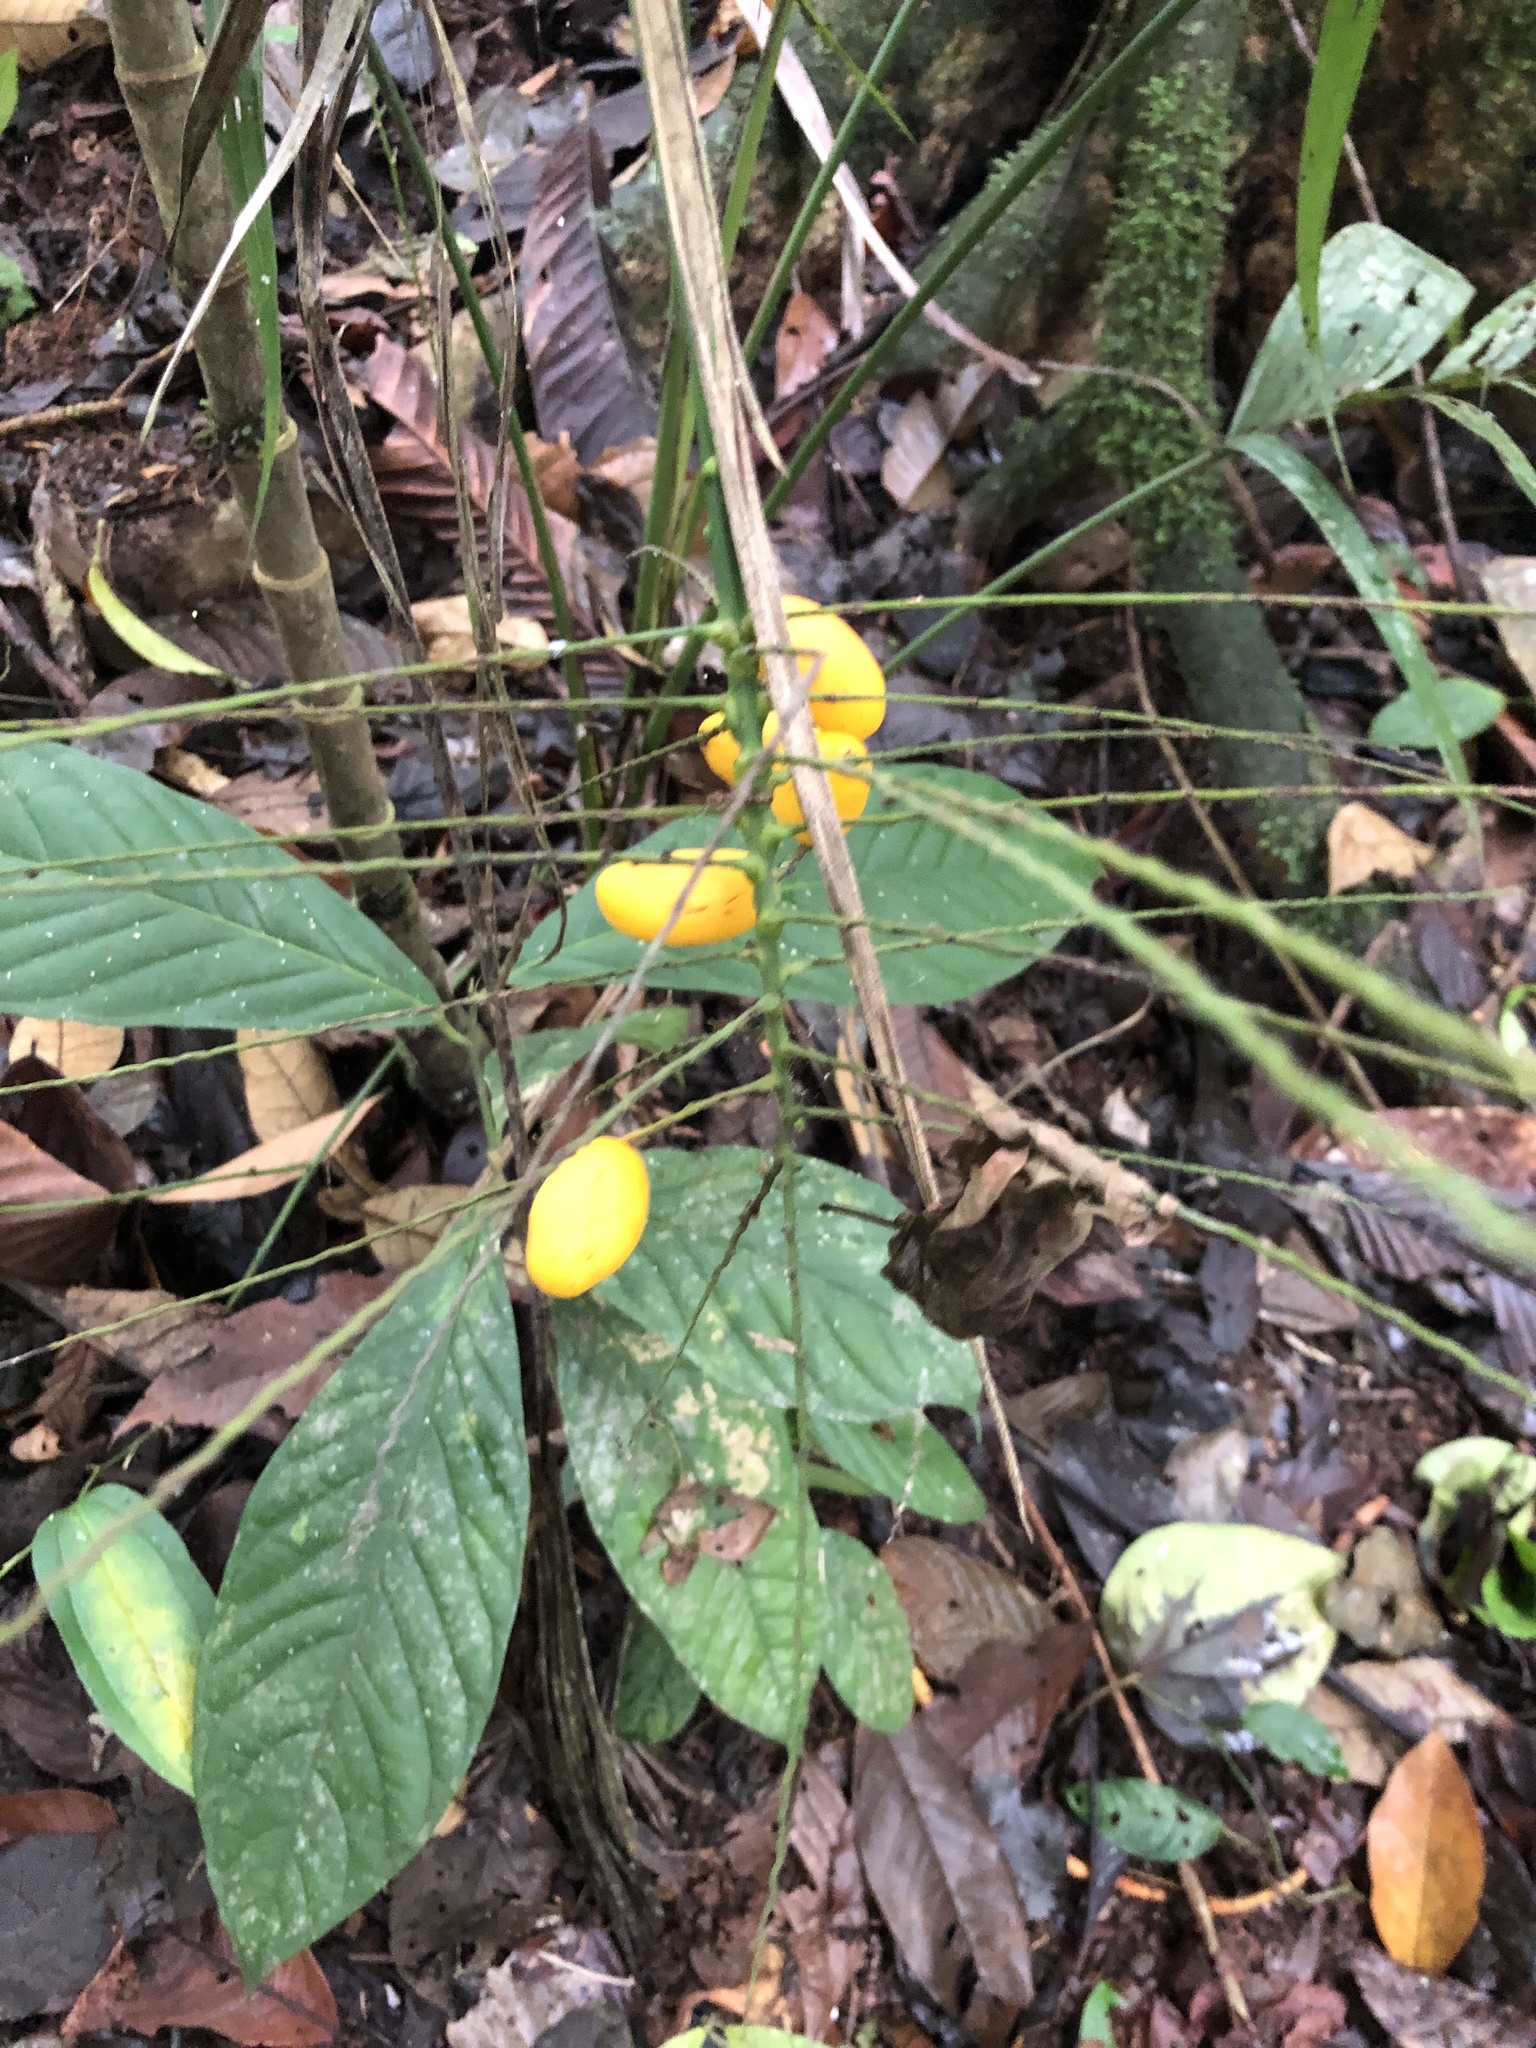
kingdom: Plantae
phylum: Tracheophyta
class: Liliopsida
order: Arecales
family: Arecaceae
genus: Synechanthus
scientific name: Synechanthus warscewiczianus
